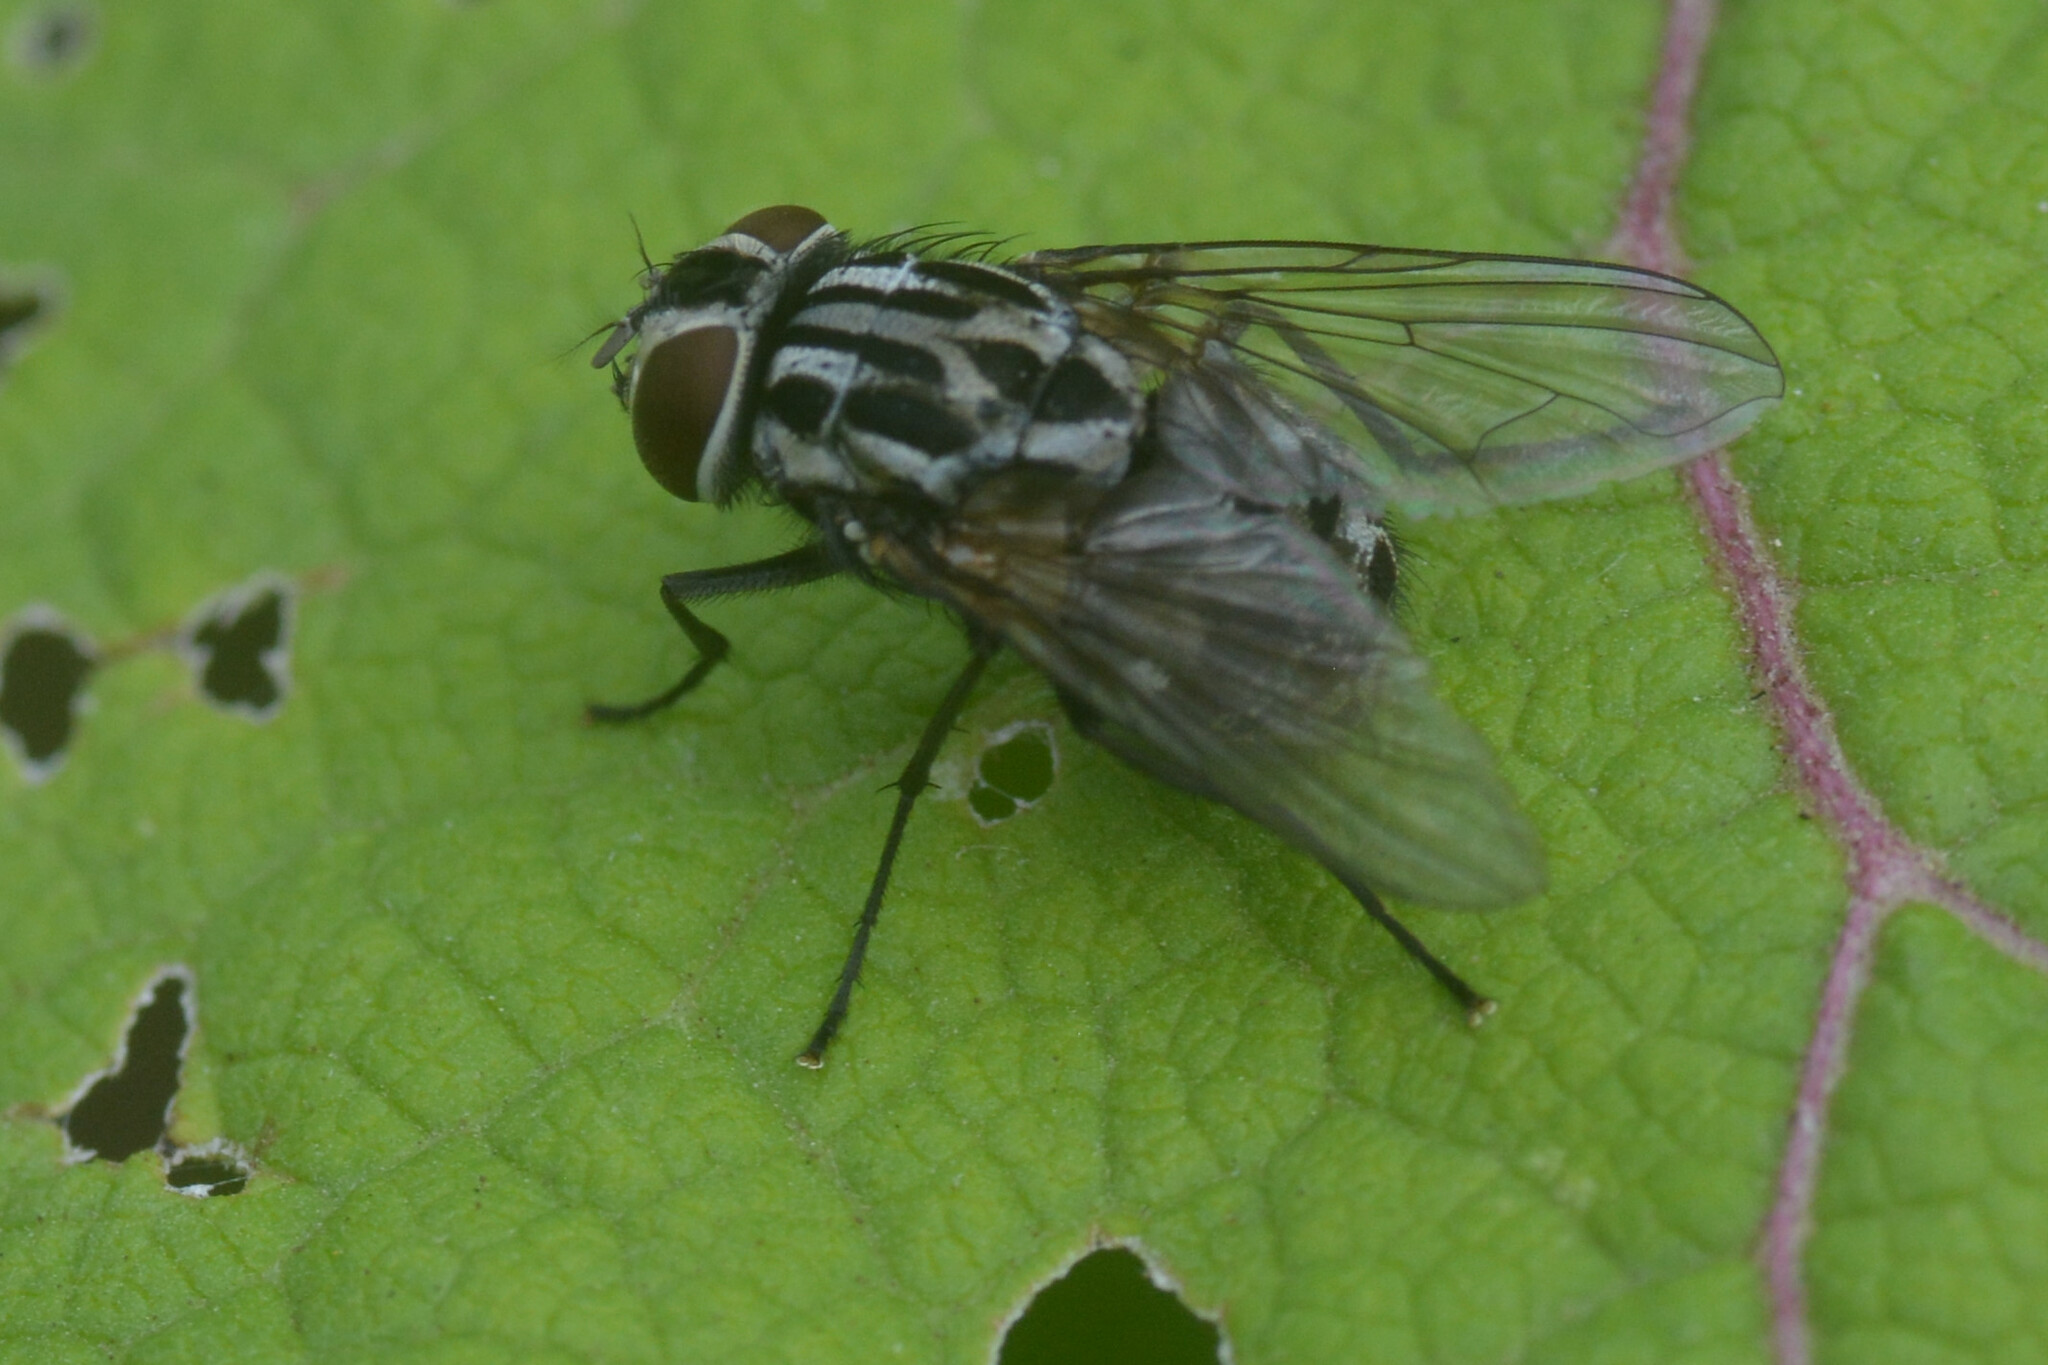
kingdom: Animalia
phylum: Arthropoda
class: Insecta
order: Diptera
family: Muscidae
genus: Graphomya
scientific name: Graphomya maculata
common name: Muscid fly
